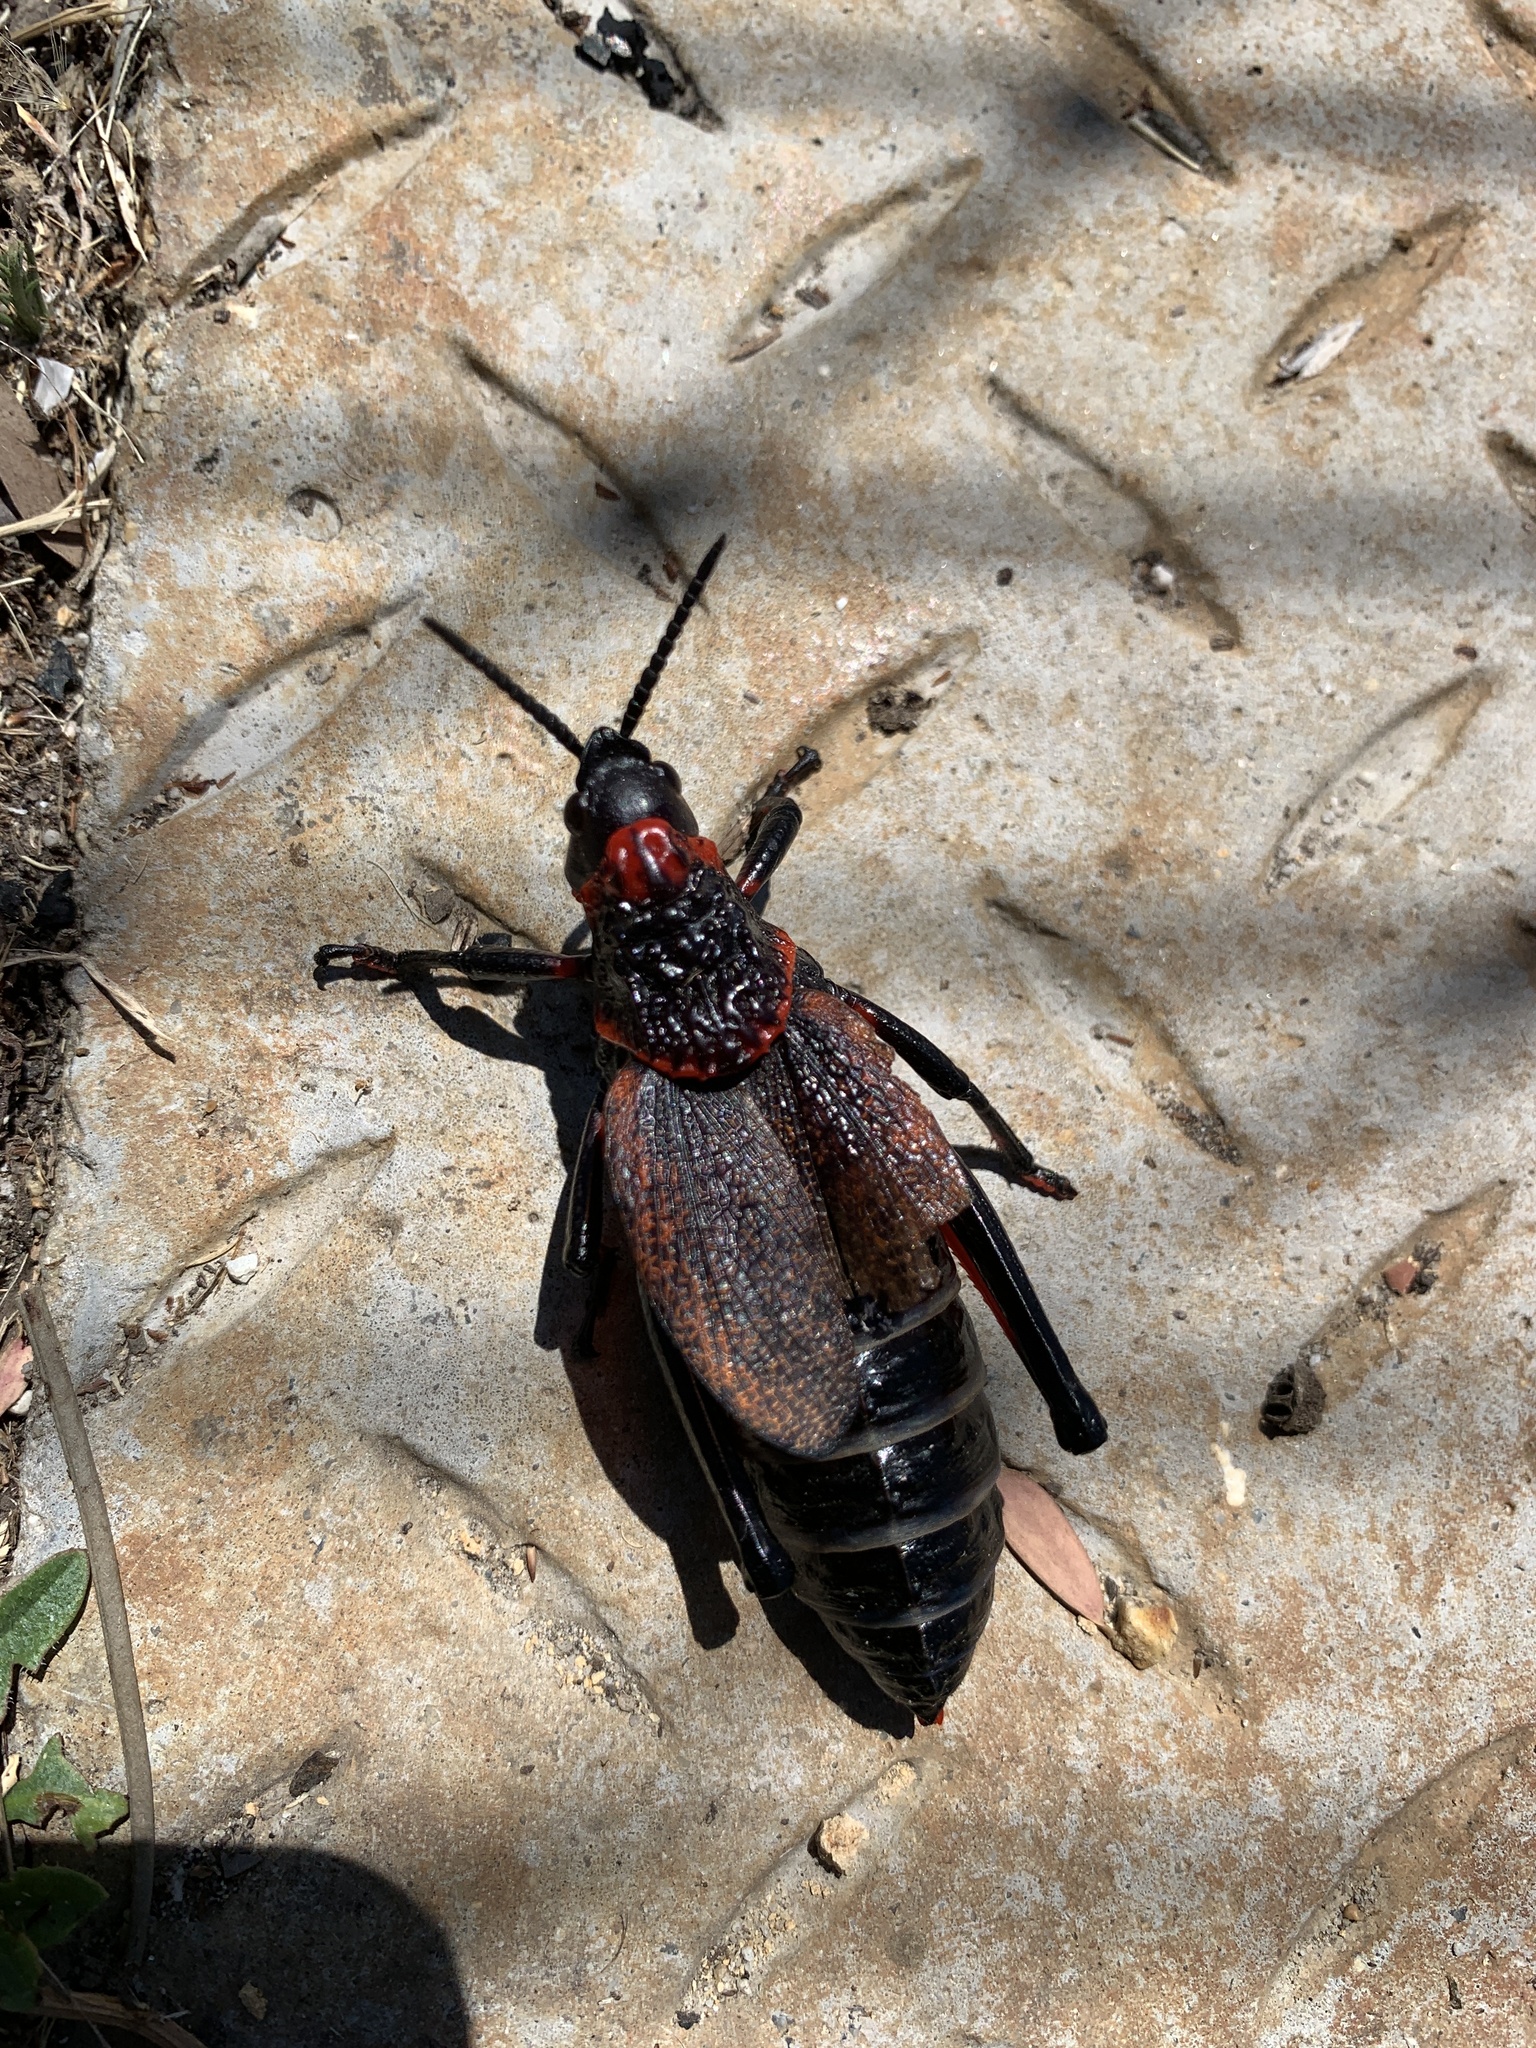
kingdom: Animalia
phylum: Arthropoda
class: Insecta
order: Orthoptera
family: Pyrgomorphidae
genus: Dictyophorus
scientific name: Dictyophorus spumans
